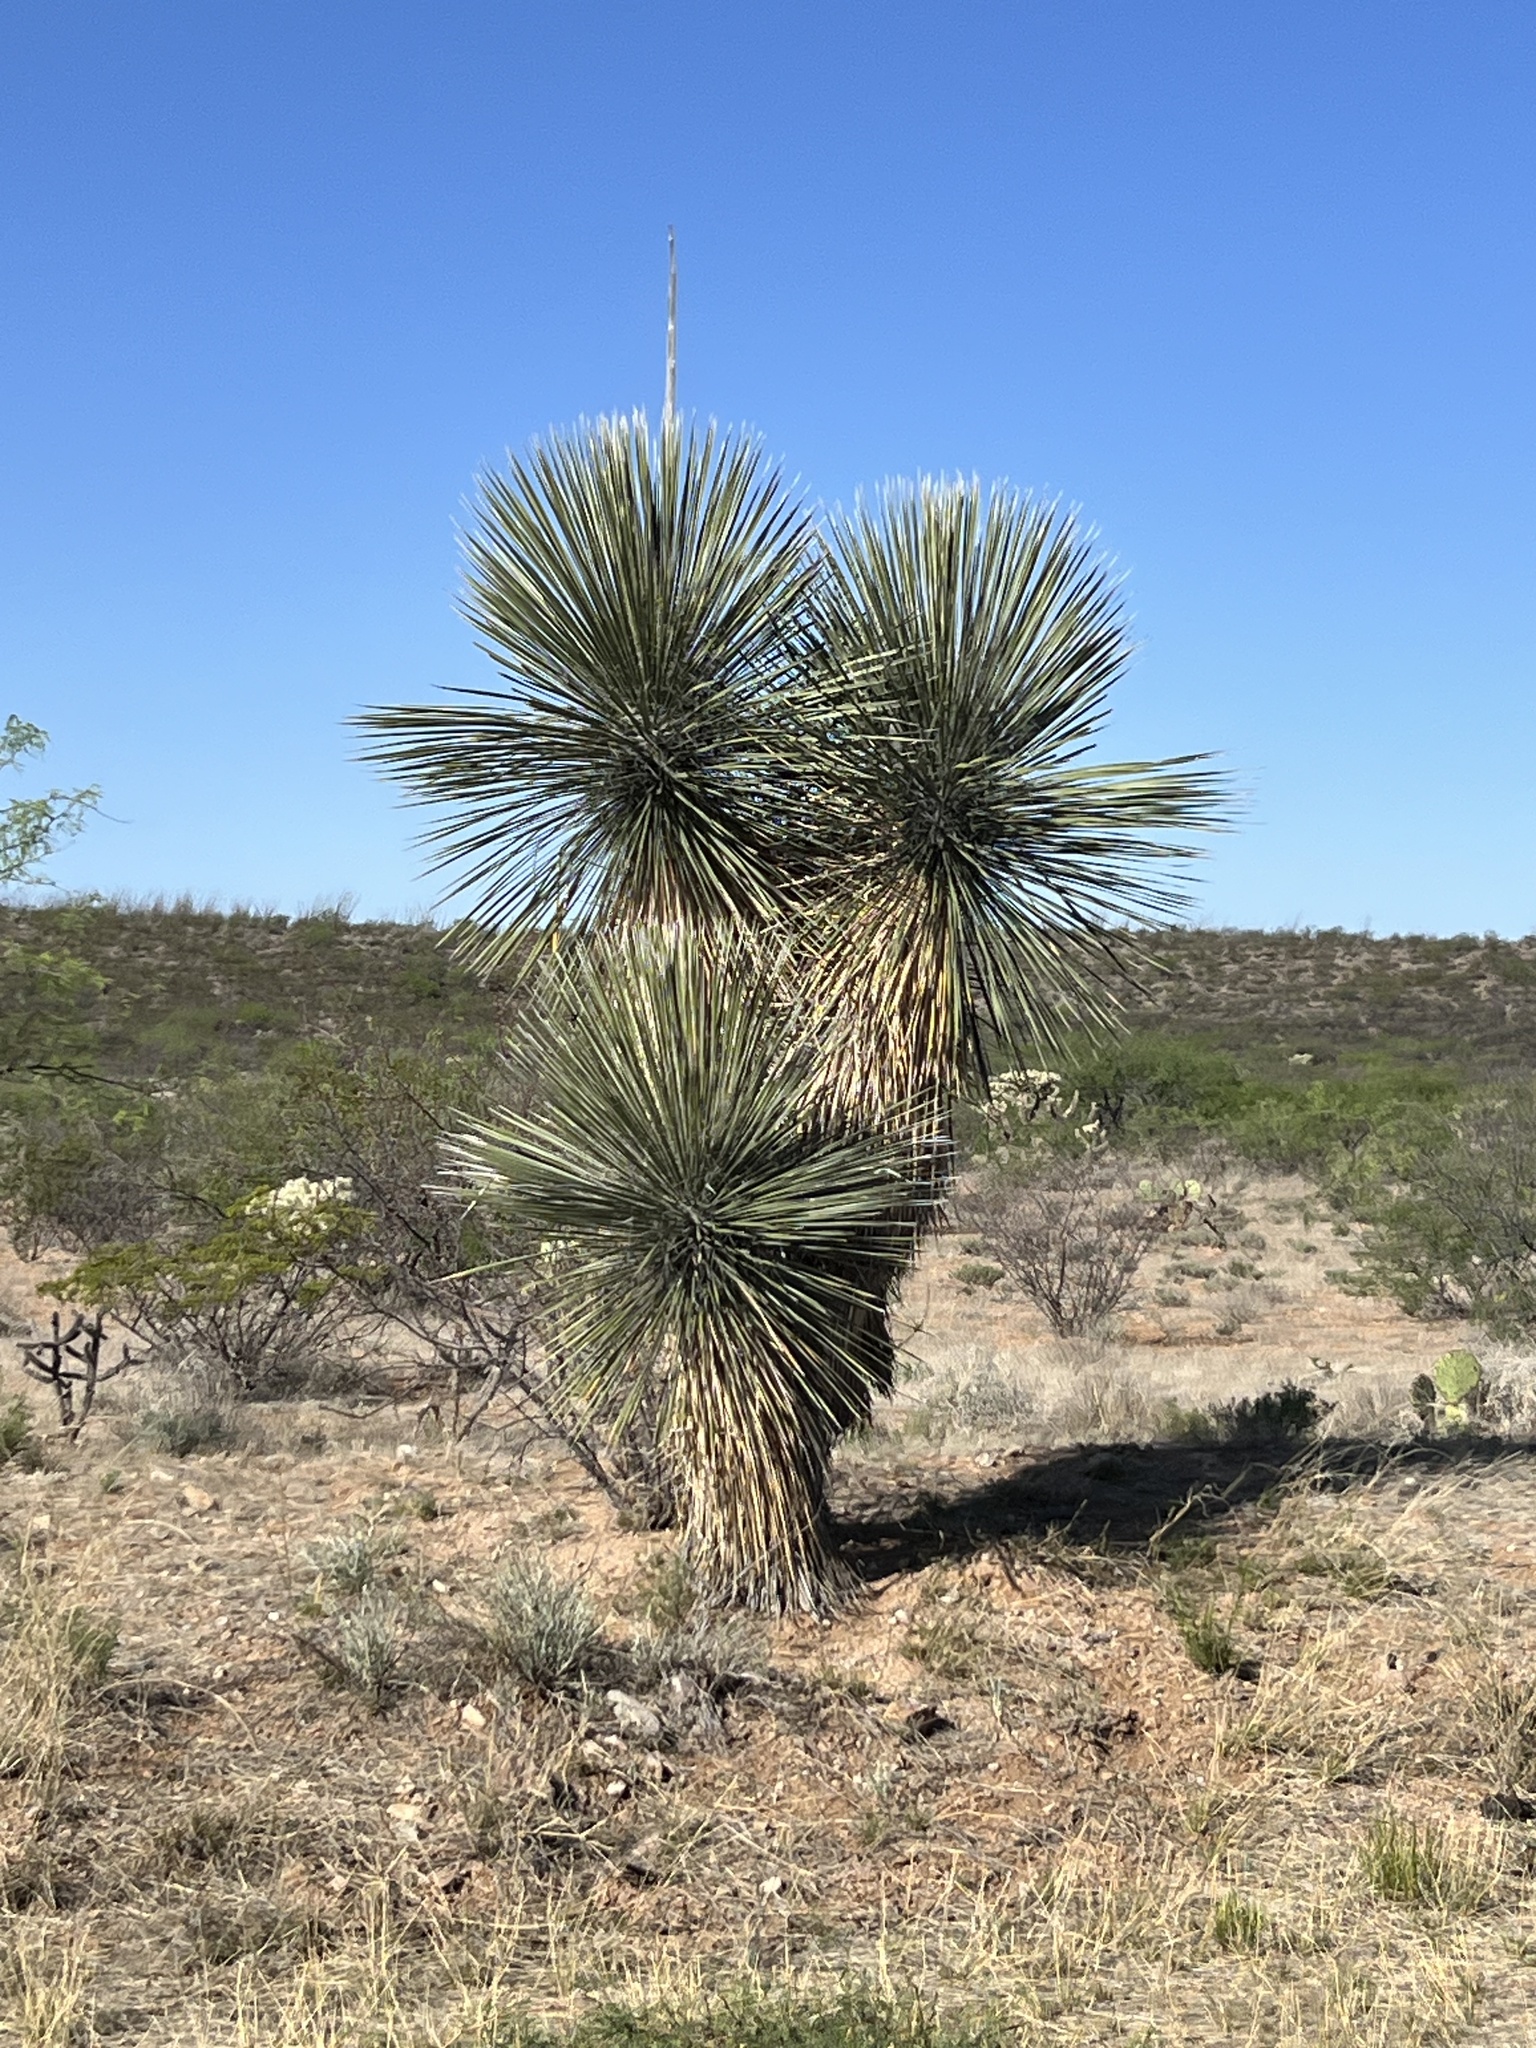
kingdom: Plantae
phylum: Tracheophyta
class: Liliopsida
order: Asparagales
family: Asparagaceae
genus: Yucca
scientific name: Yucca elata
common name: Palmella
